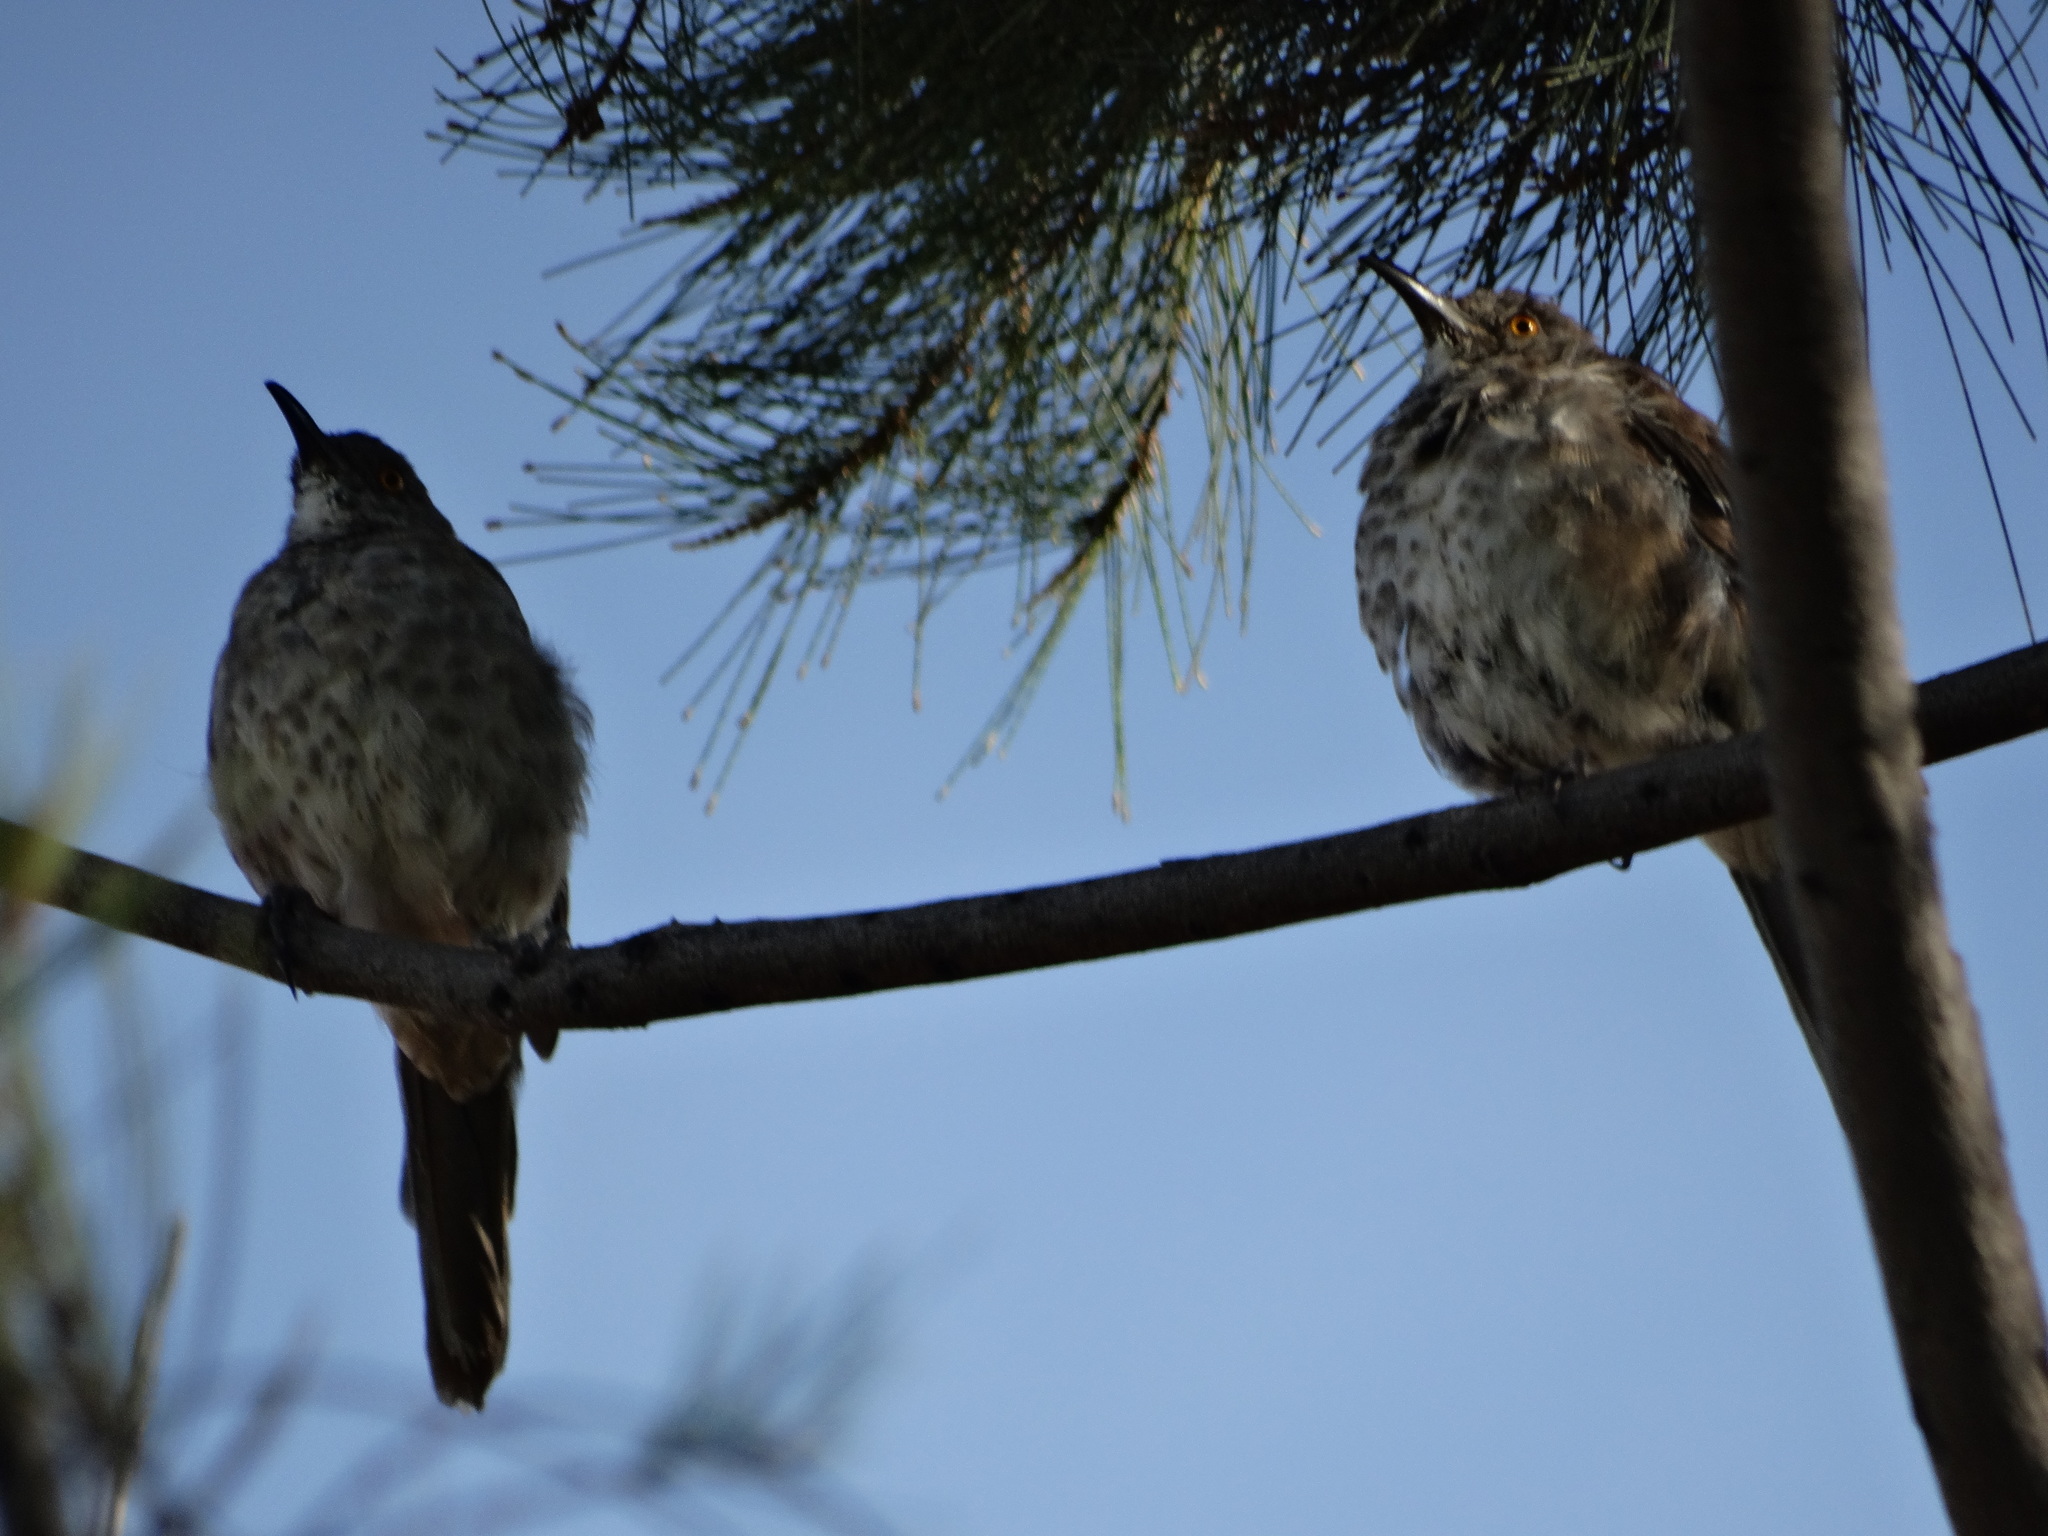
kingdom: Animalia
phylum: Chordata
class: Aves
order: Passeriformes
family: Mimidae
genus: Toxostoma
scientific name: Toxostoma curvirostre
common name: Curve-billed thrasher
